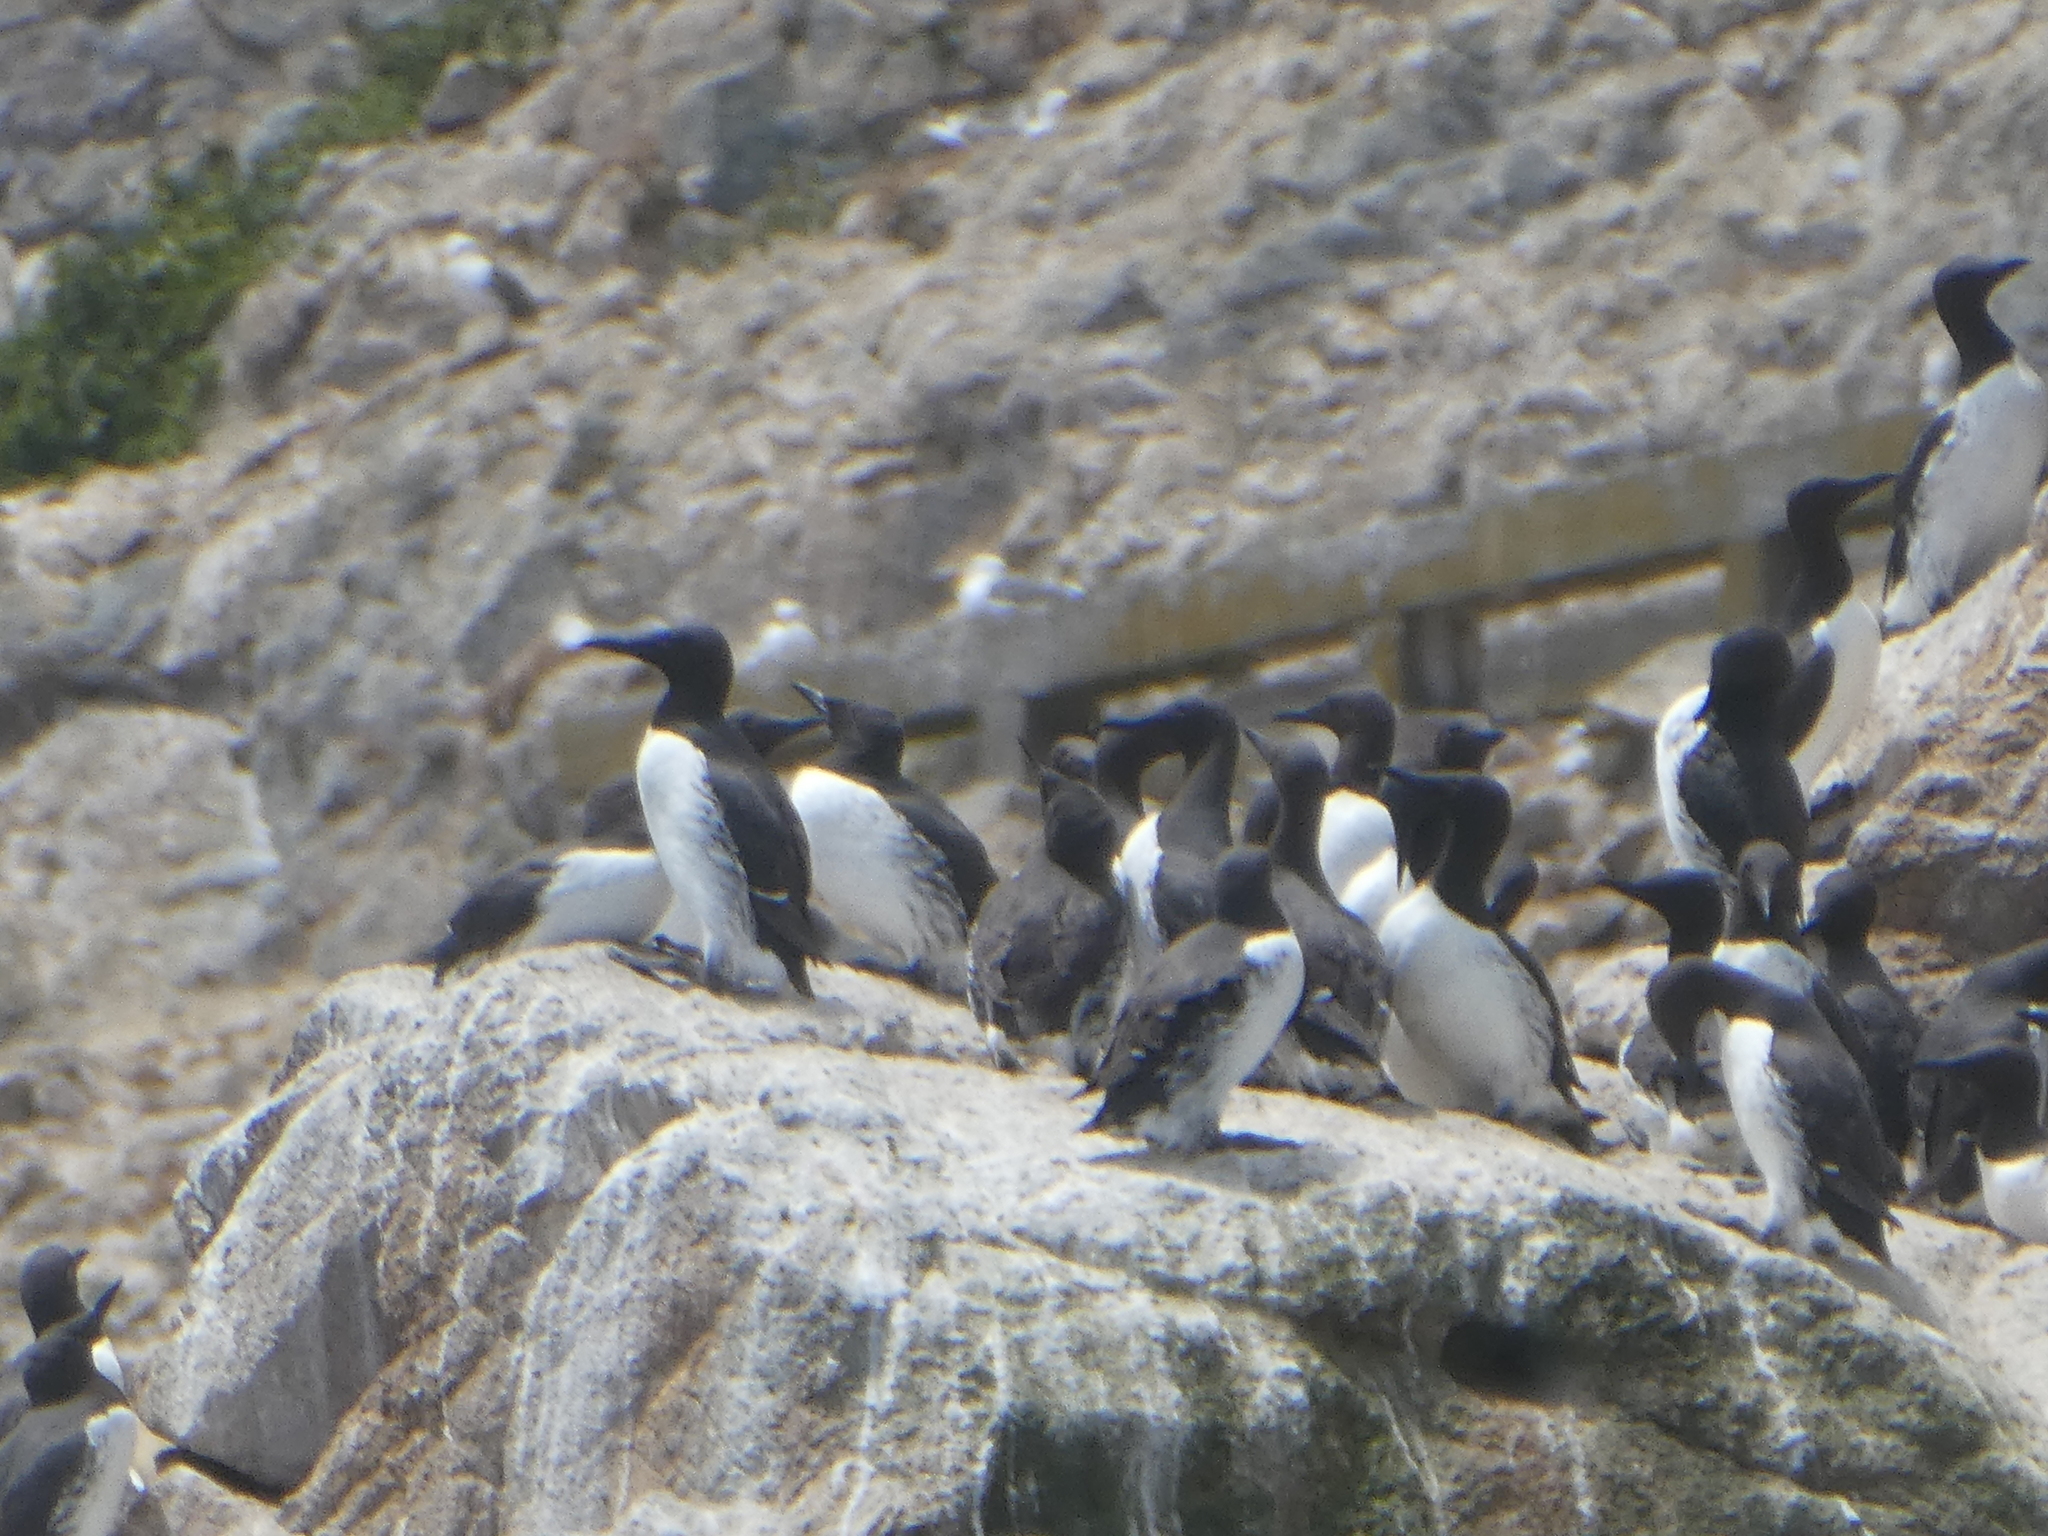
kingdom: Animalia
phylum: Chordata
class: Aves
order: Charadriiformes
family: Alcidae
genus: Uria
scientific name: Uria aalge
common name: Common murre
